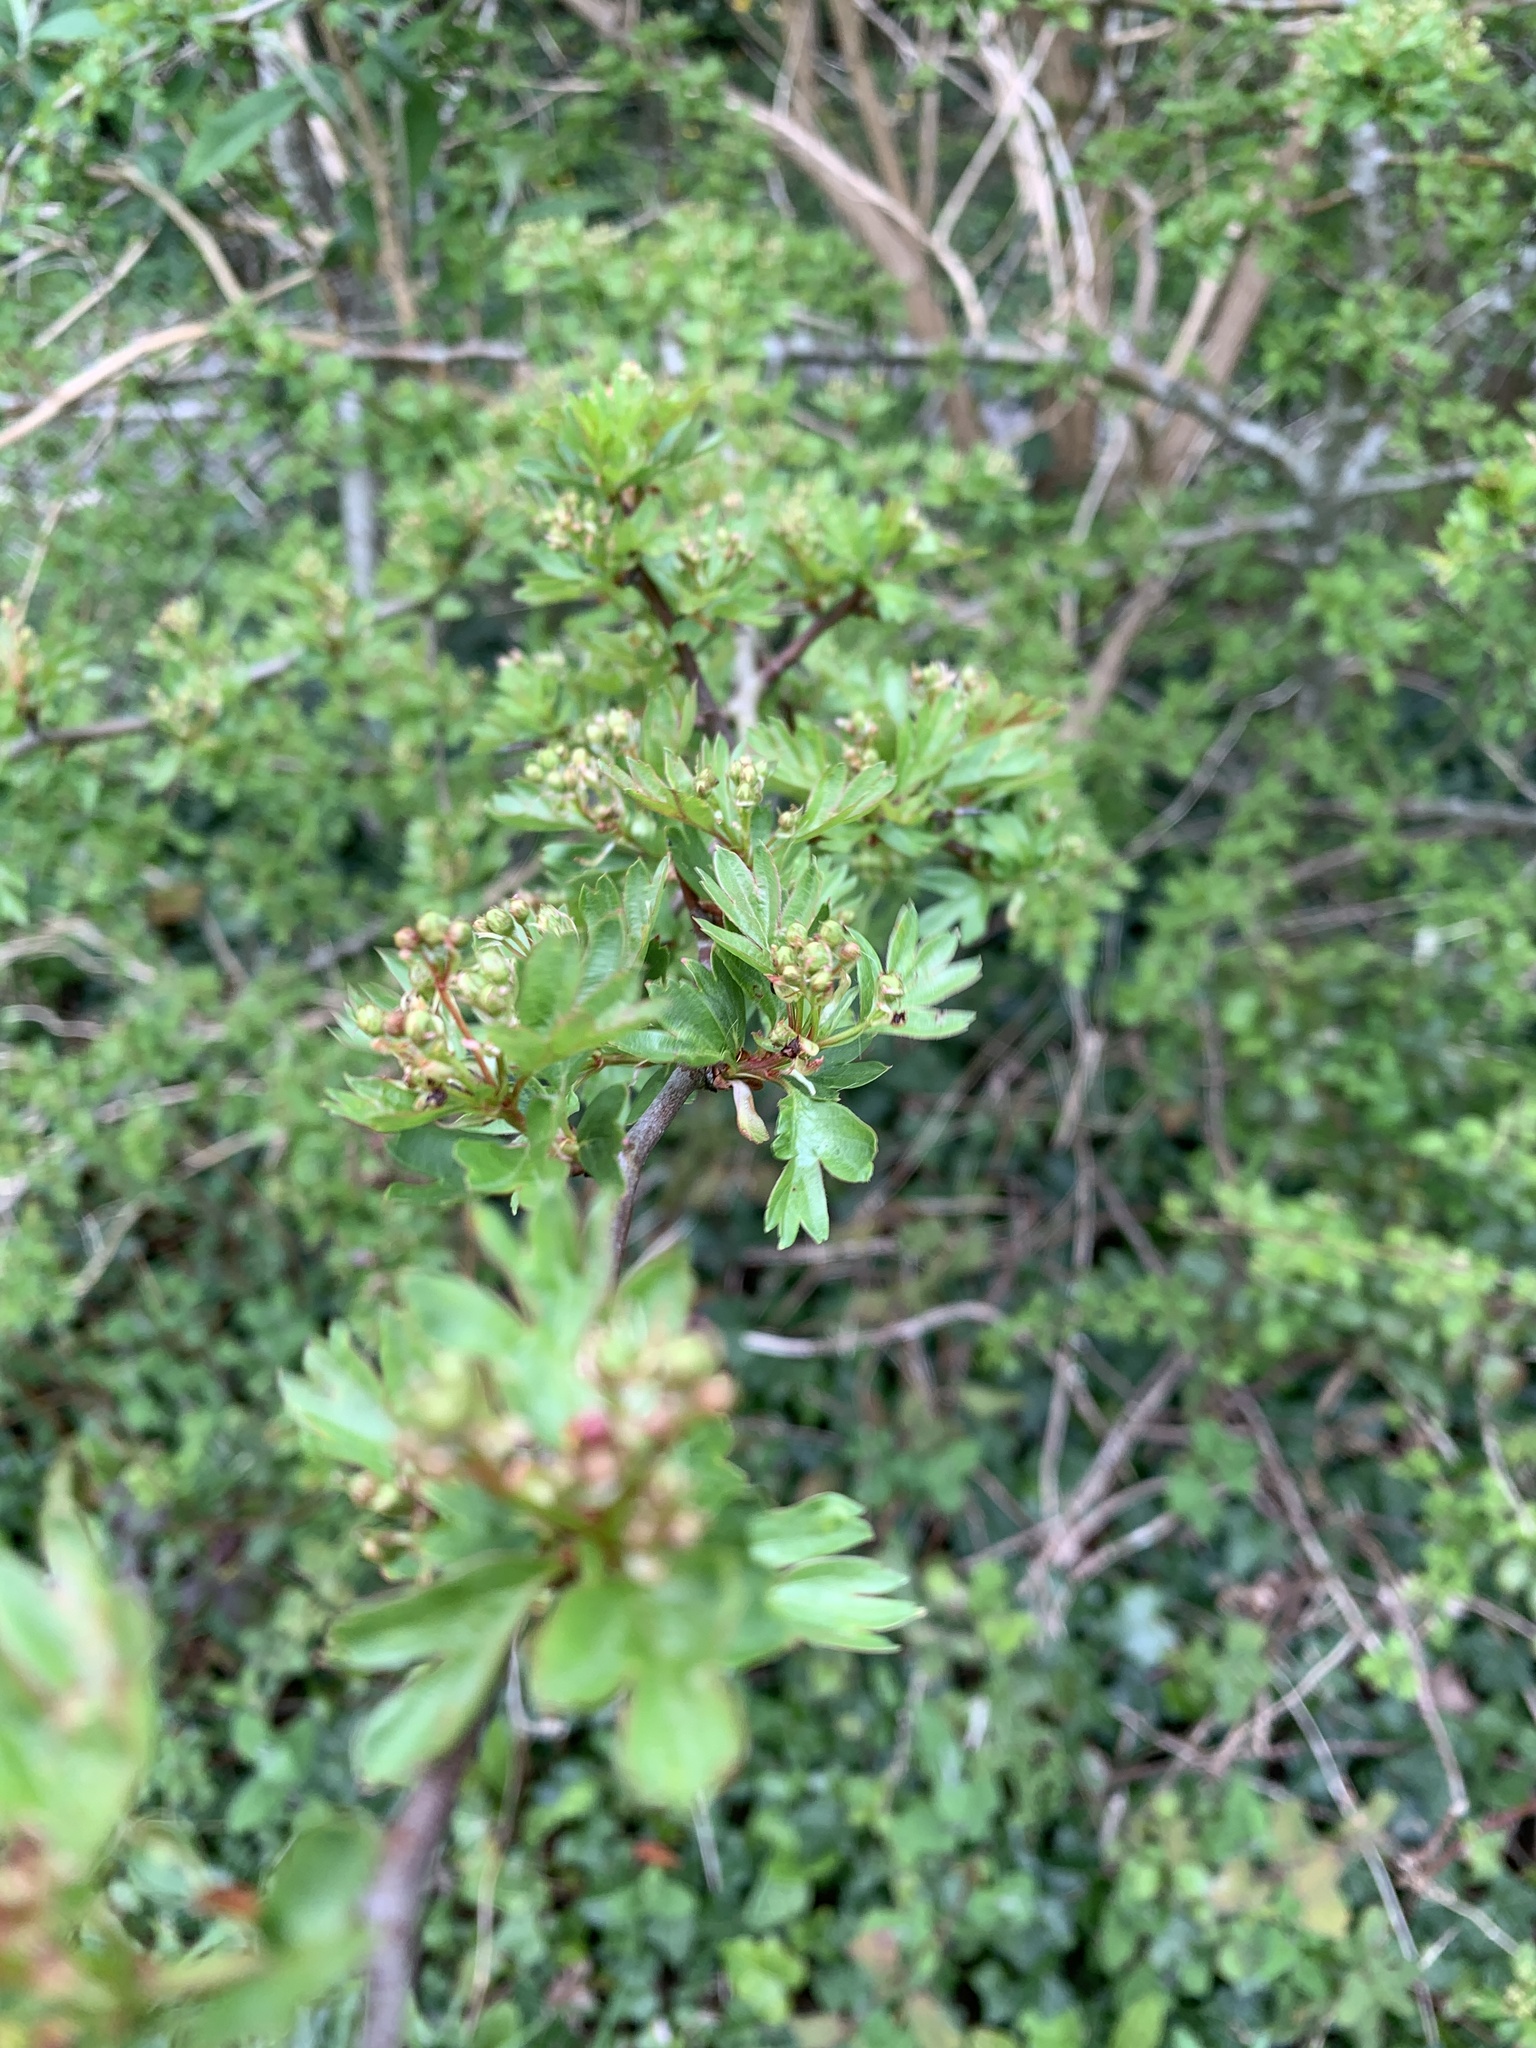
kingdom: Plantae
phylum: Tracheophyta
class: Magnoliopsida
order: Rosales
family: Rosaceae
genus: Crataegus
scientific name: Crataegus monogyna
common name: Hawthorn
